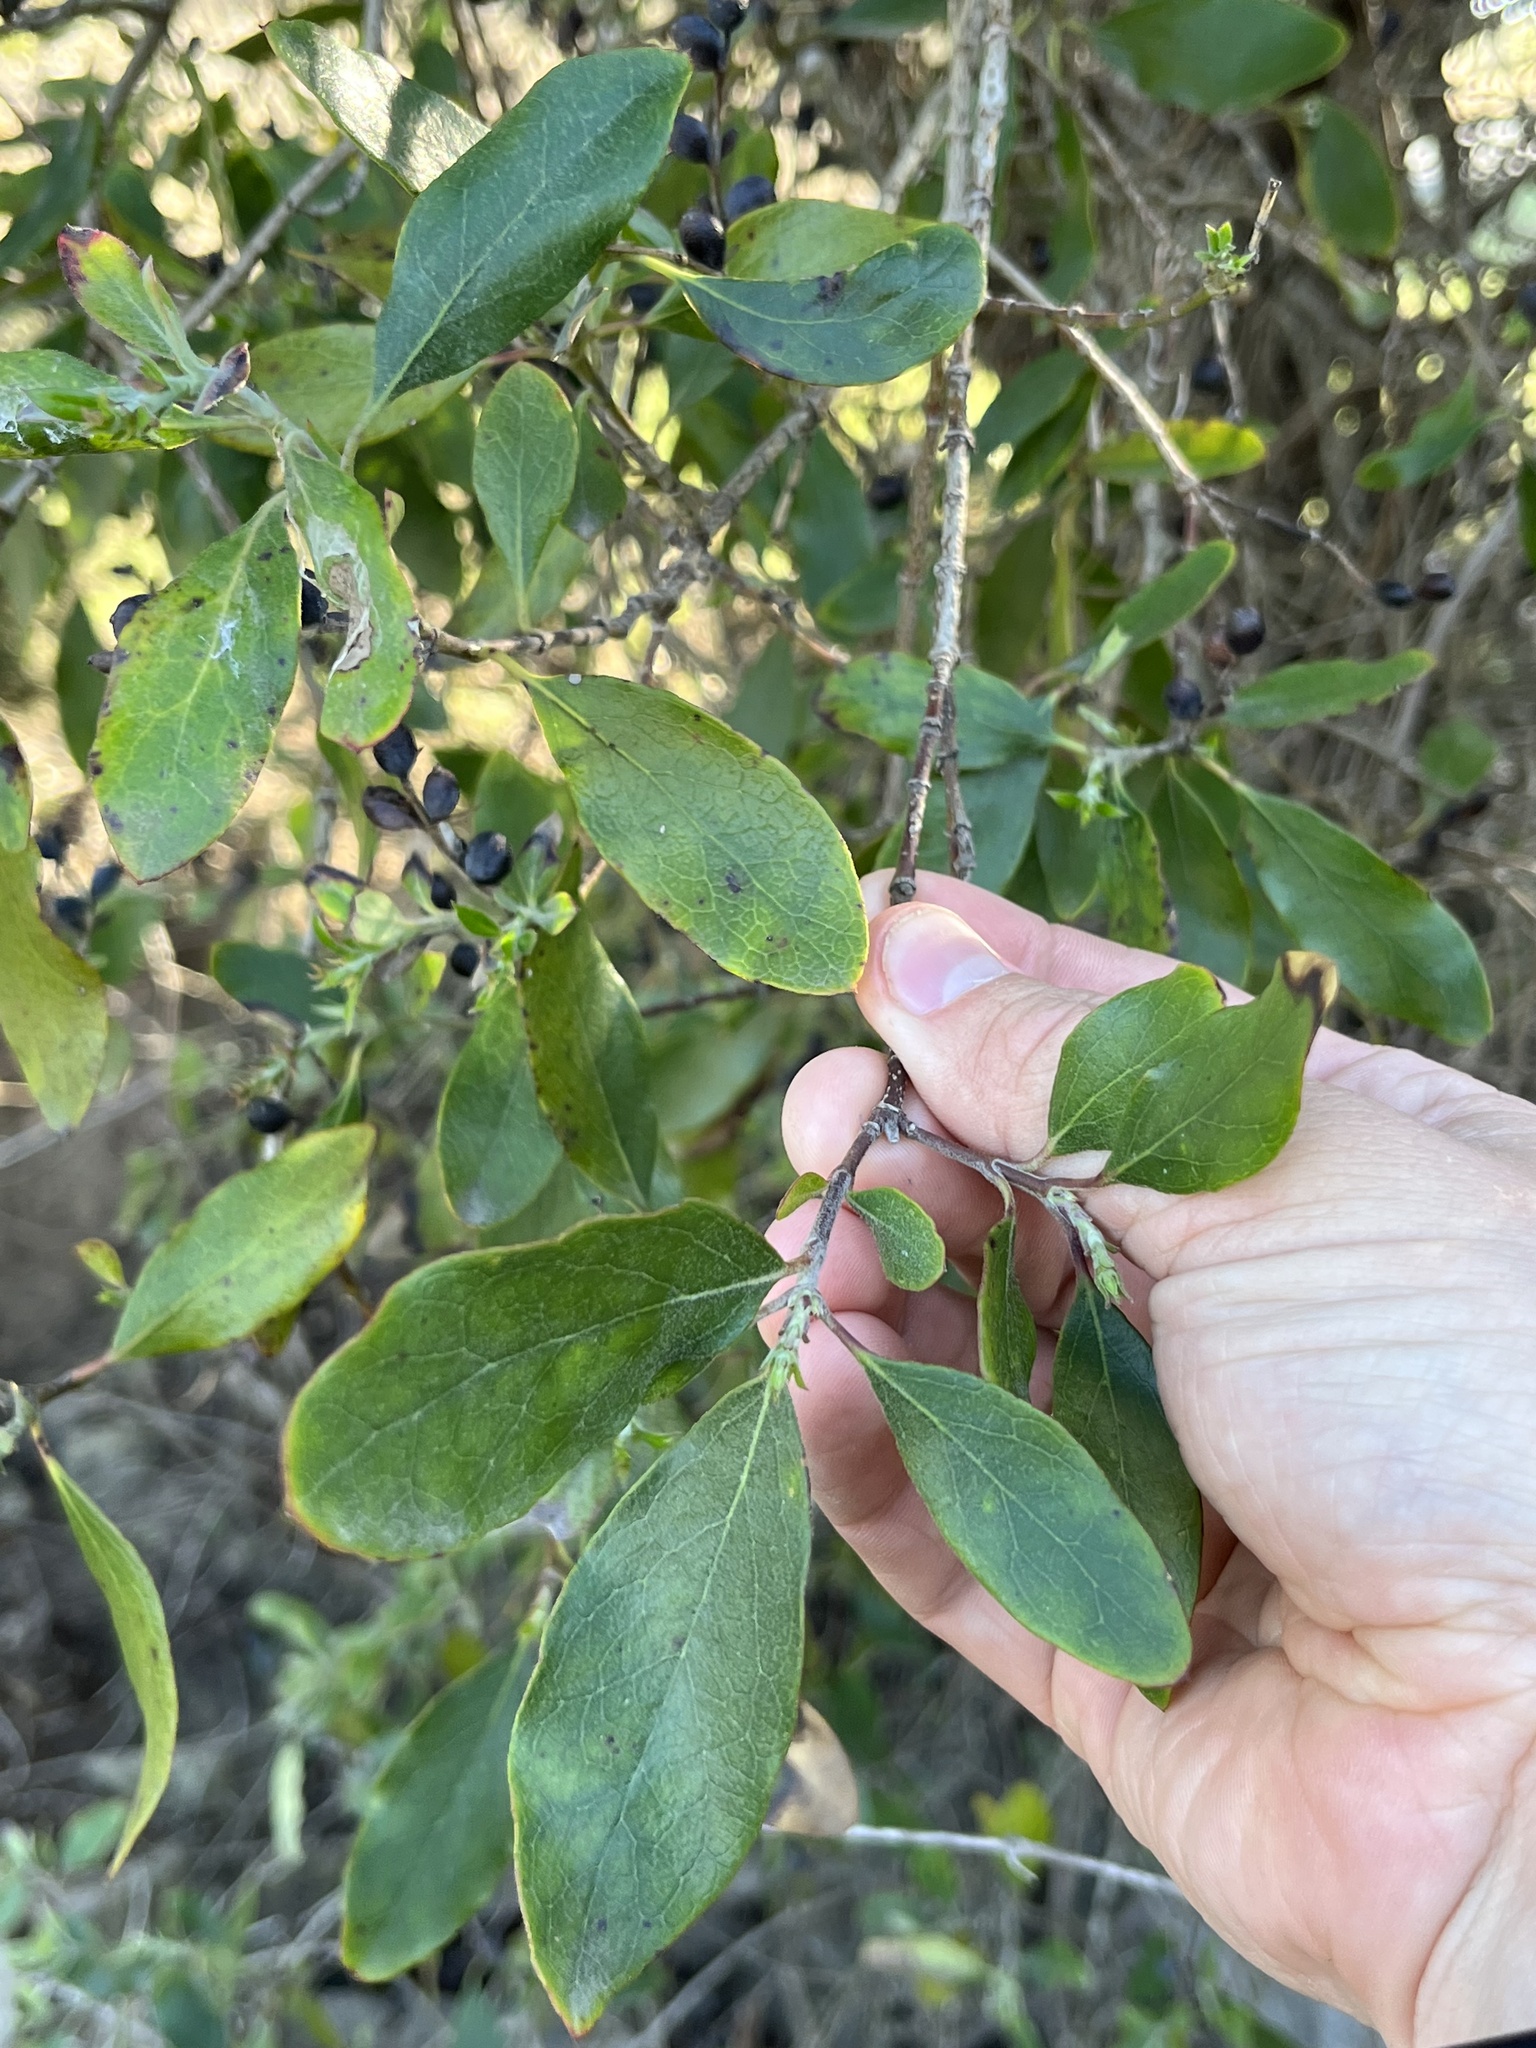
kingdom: Plantae
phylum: Tracheophyta
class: Magnoliopsida
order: Garryales
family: Garryaceae
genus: Garrya
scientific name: Garrya lindheimeri
